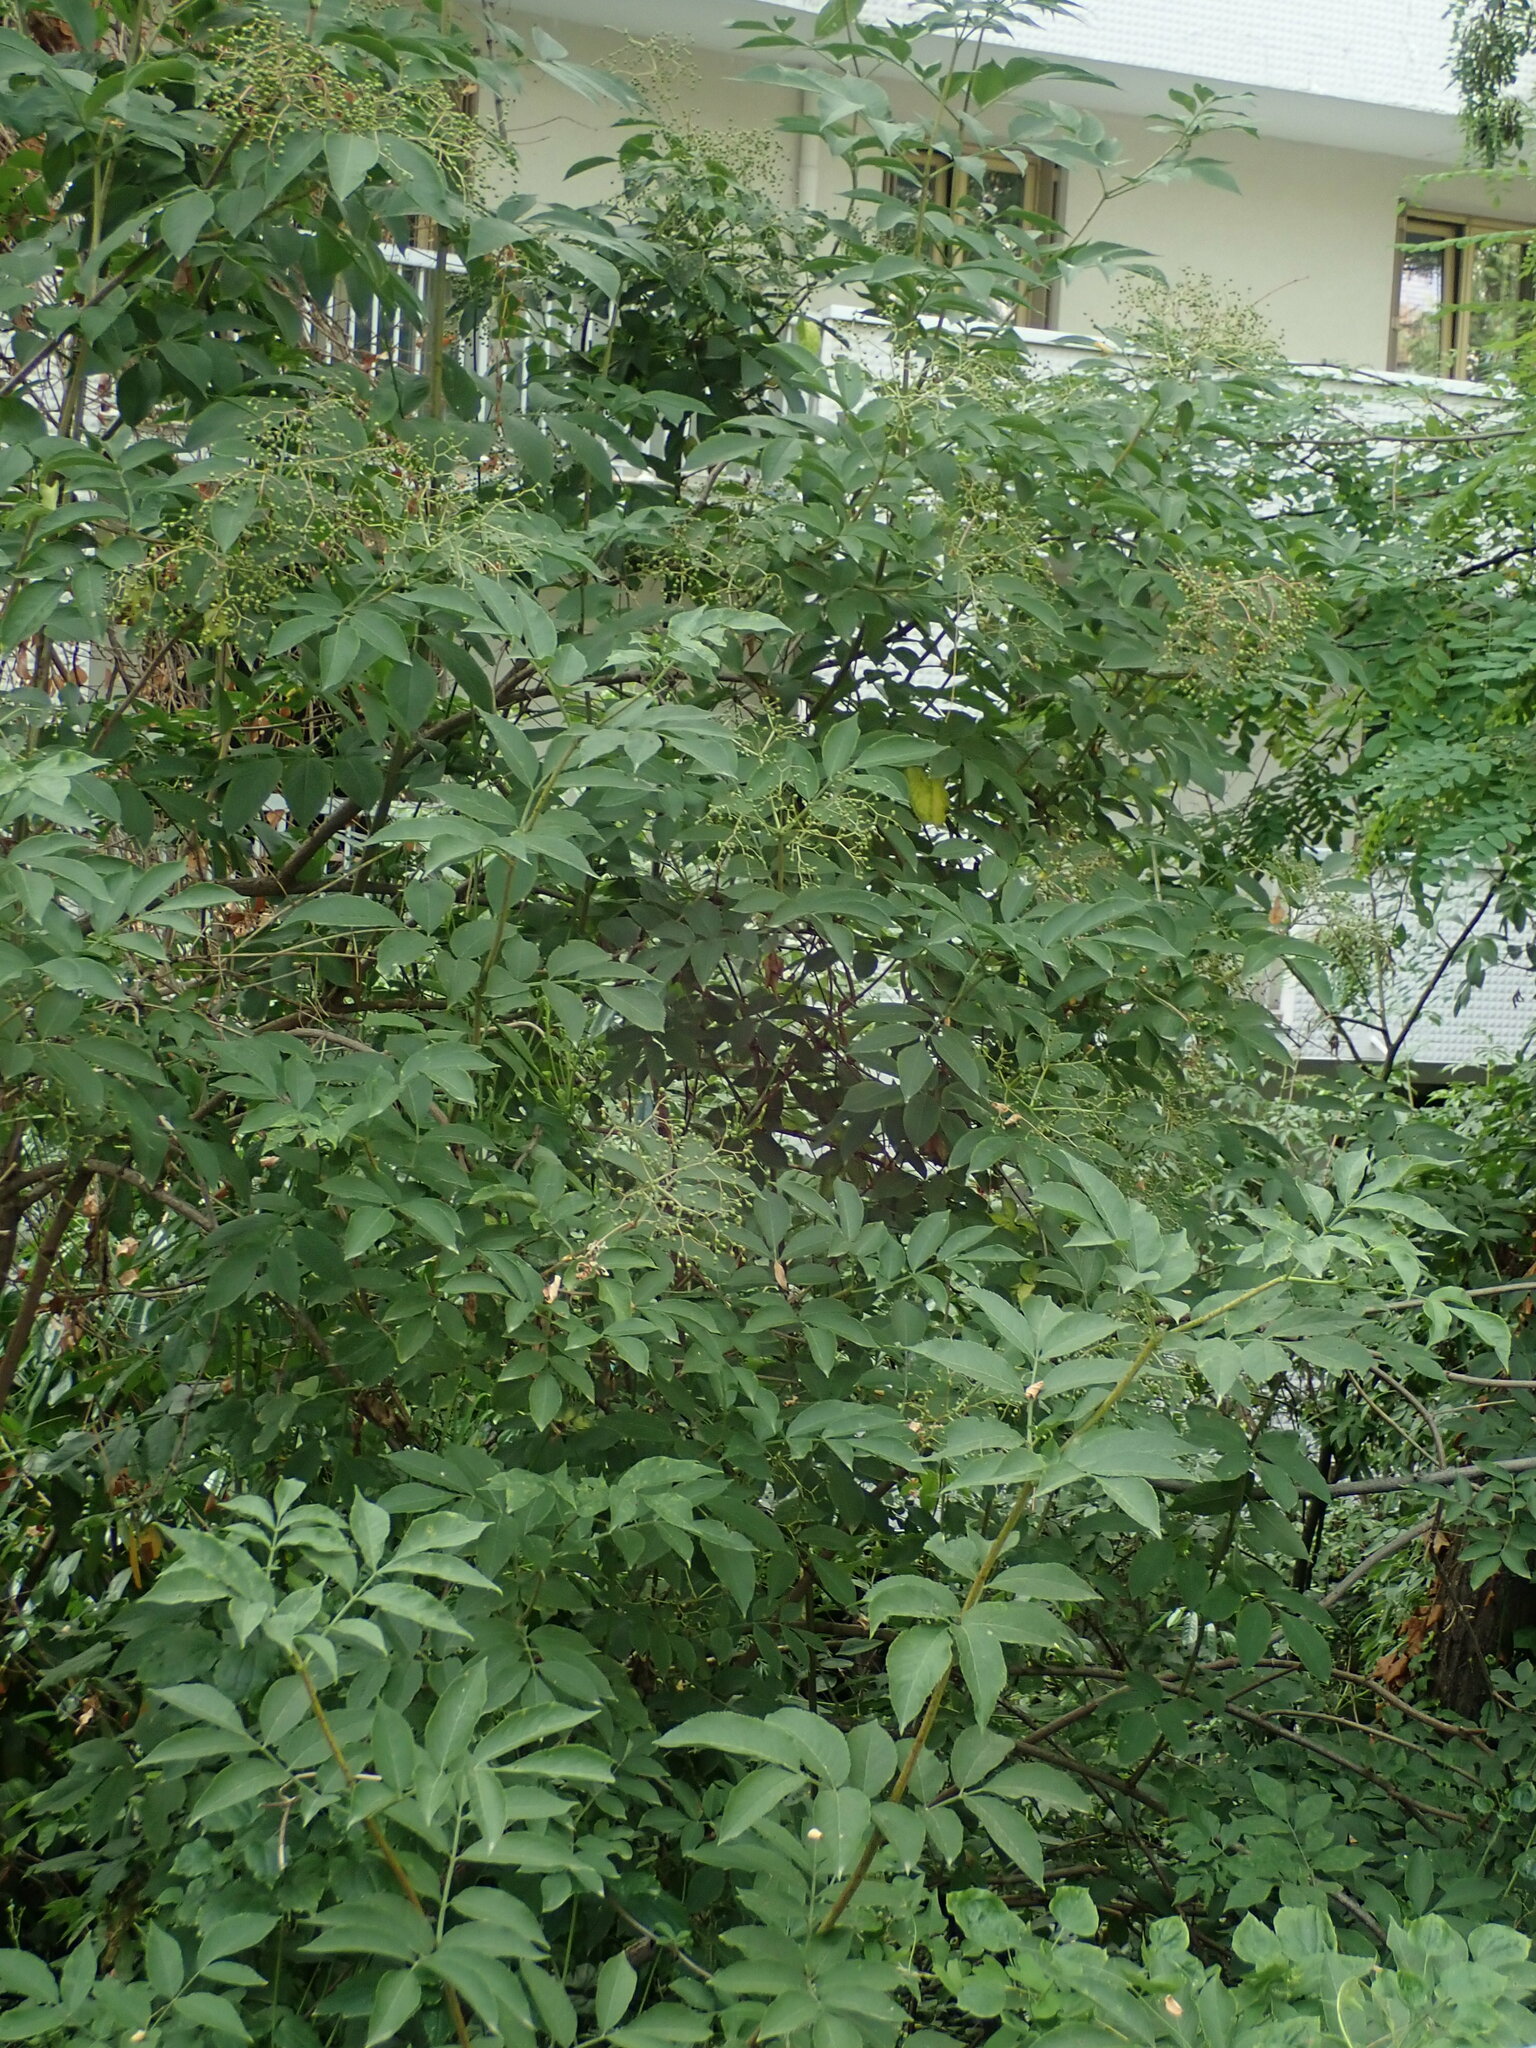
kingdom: Plantae
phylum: Tracheophyta
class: Magnoliopsida
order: Dipsacales
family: Viburnaceae
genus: Sambucus
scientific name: Sambucus nigra
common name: Elder
